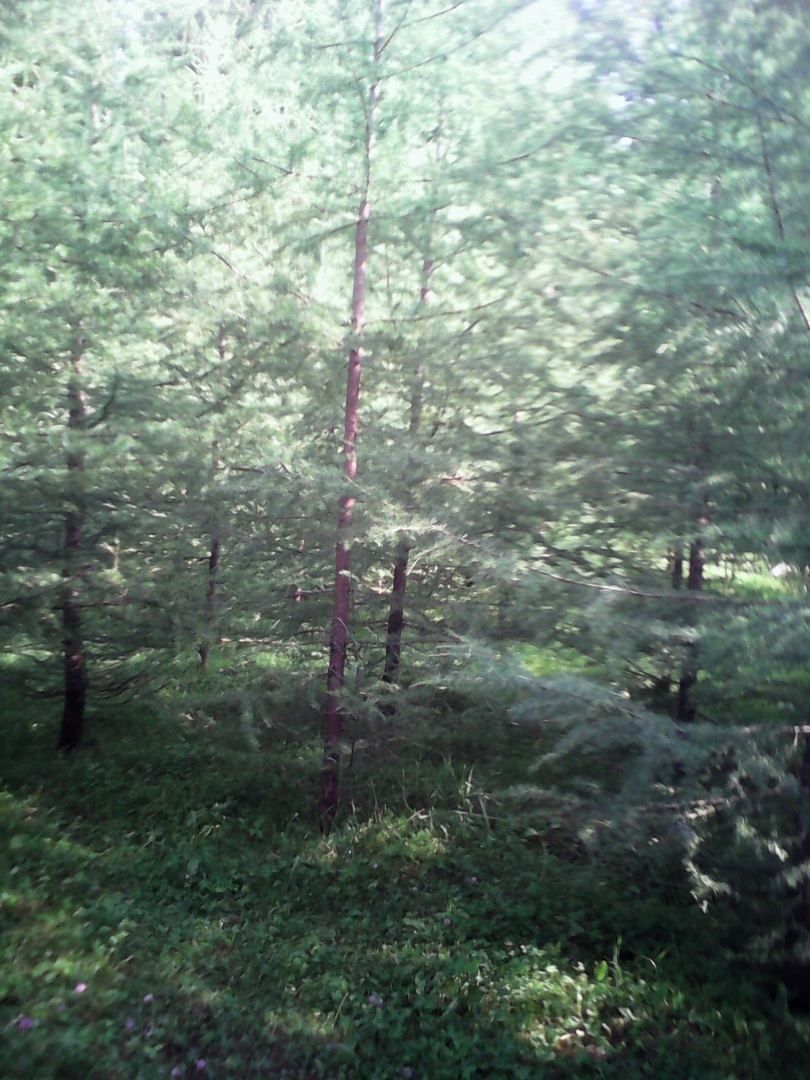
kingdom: Plantae
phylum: Tracheophyta
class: Pinopsida
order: Pinales
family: Pinaceae
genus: Larix
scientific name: Larix sibirica
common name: Siberian larch
